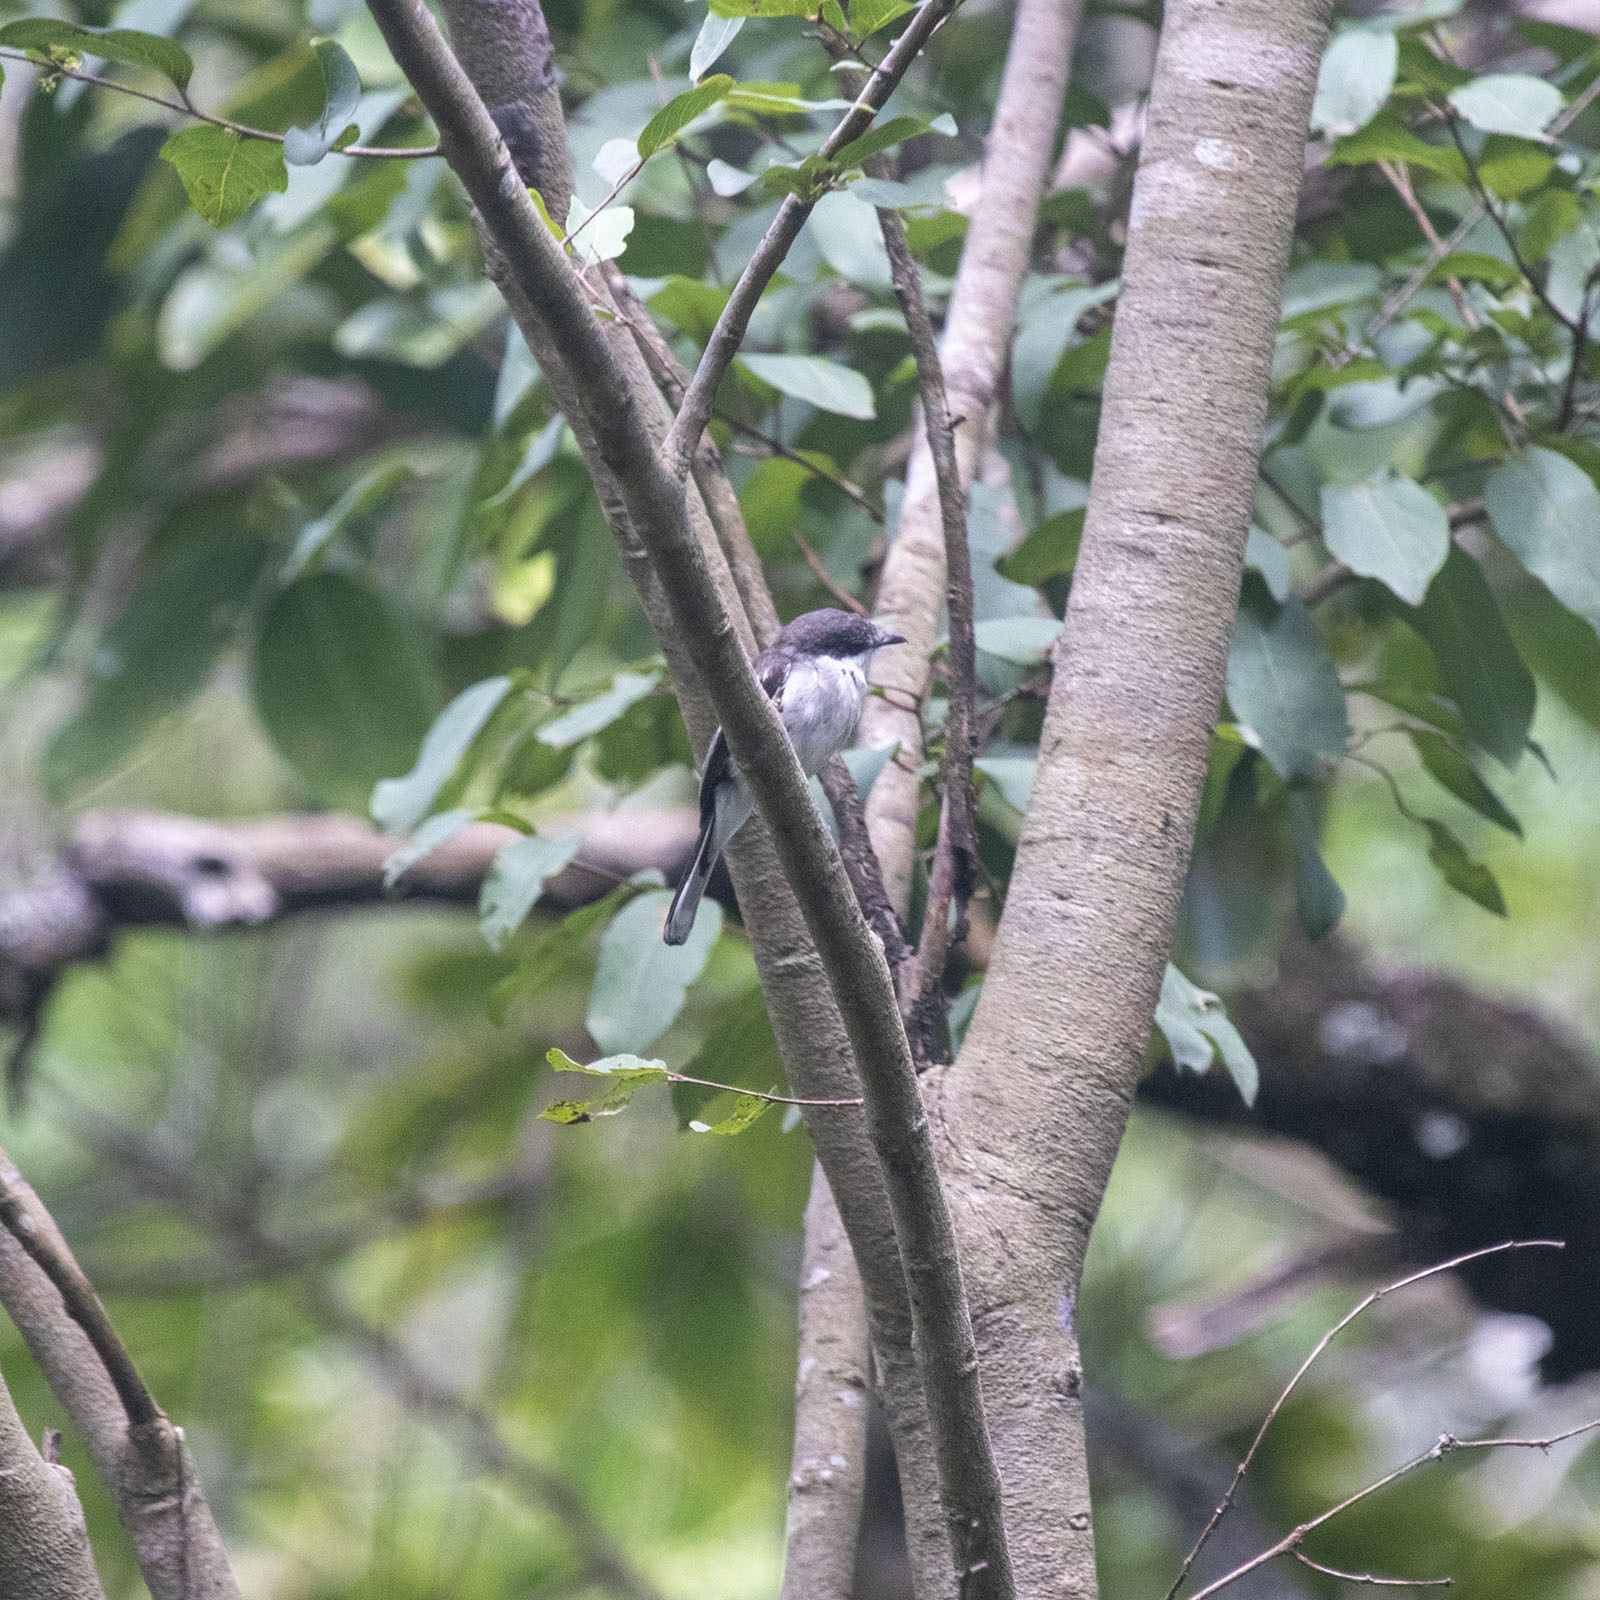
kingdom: Animalia
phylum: Chordata
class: Aves
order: Passeriformes
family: Tephrodornithidae
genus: Hemipus
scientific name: Hemipus picatus
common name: Bar-winged flycatcher-shrike
